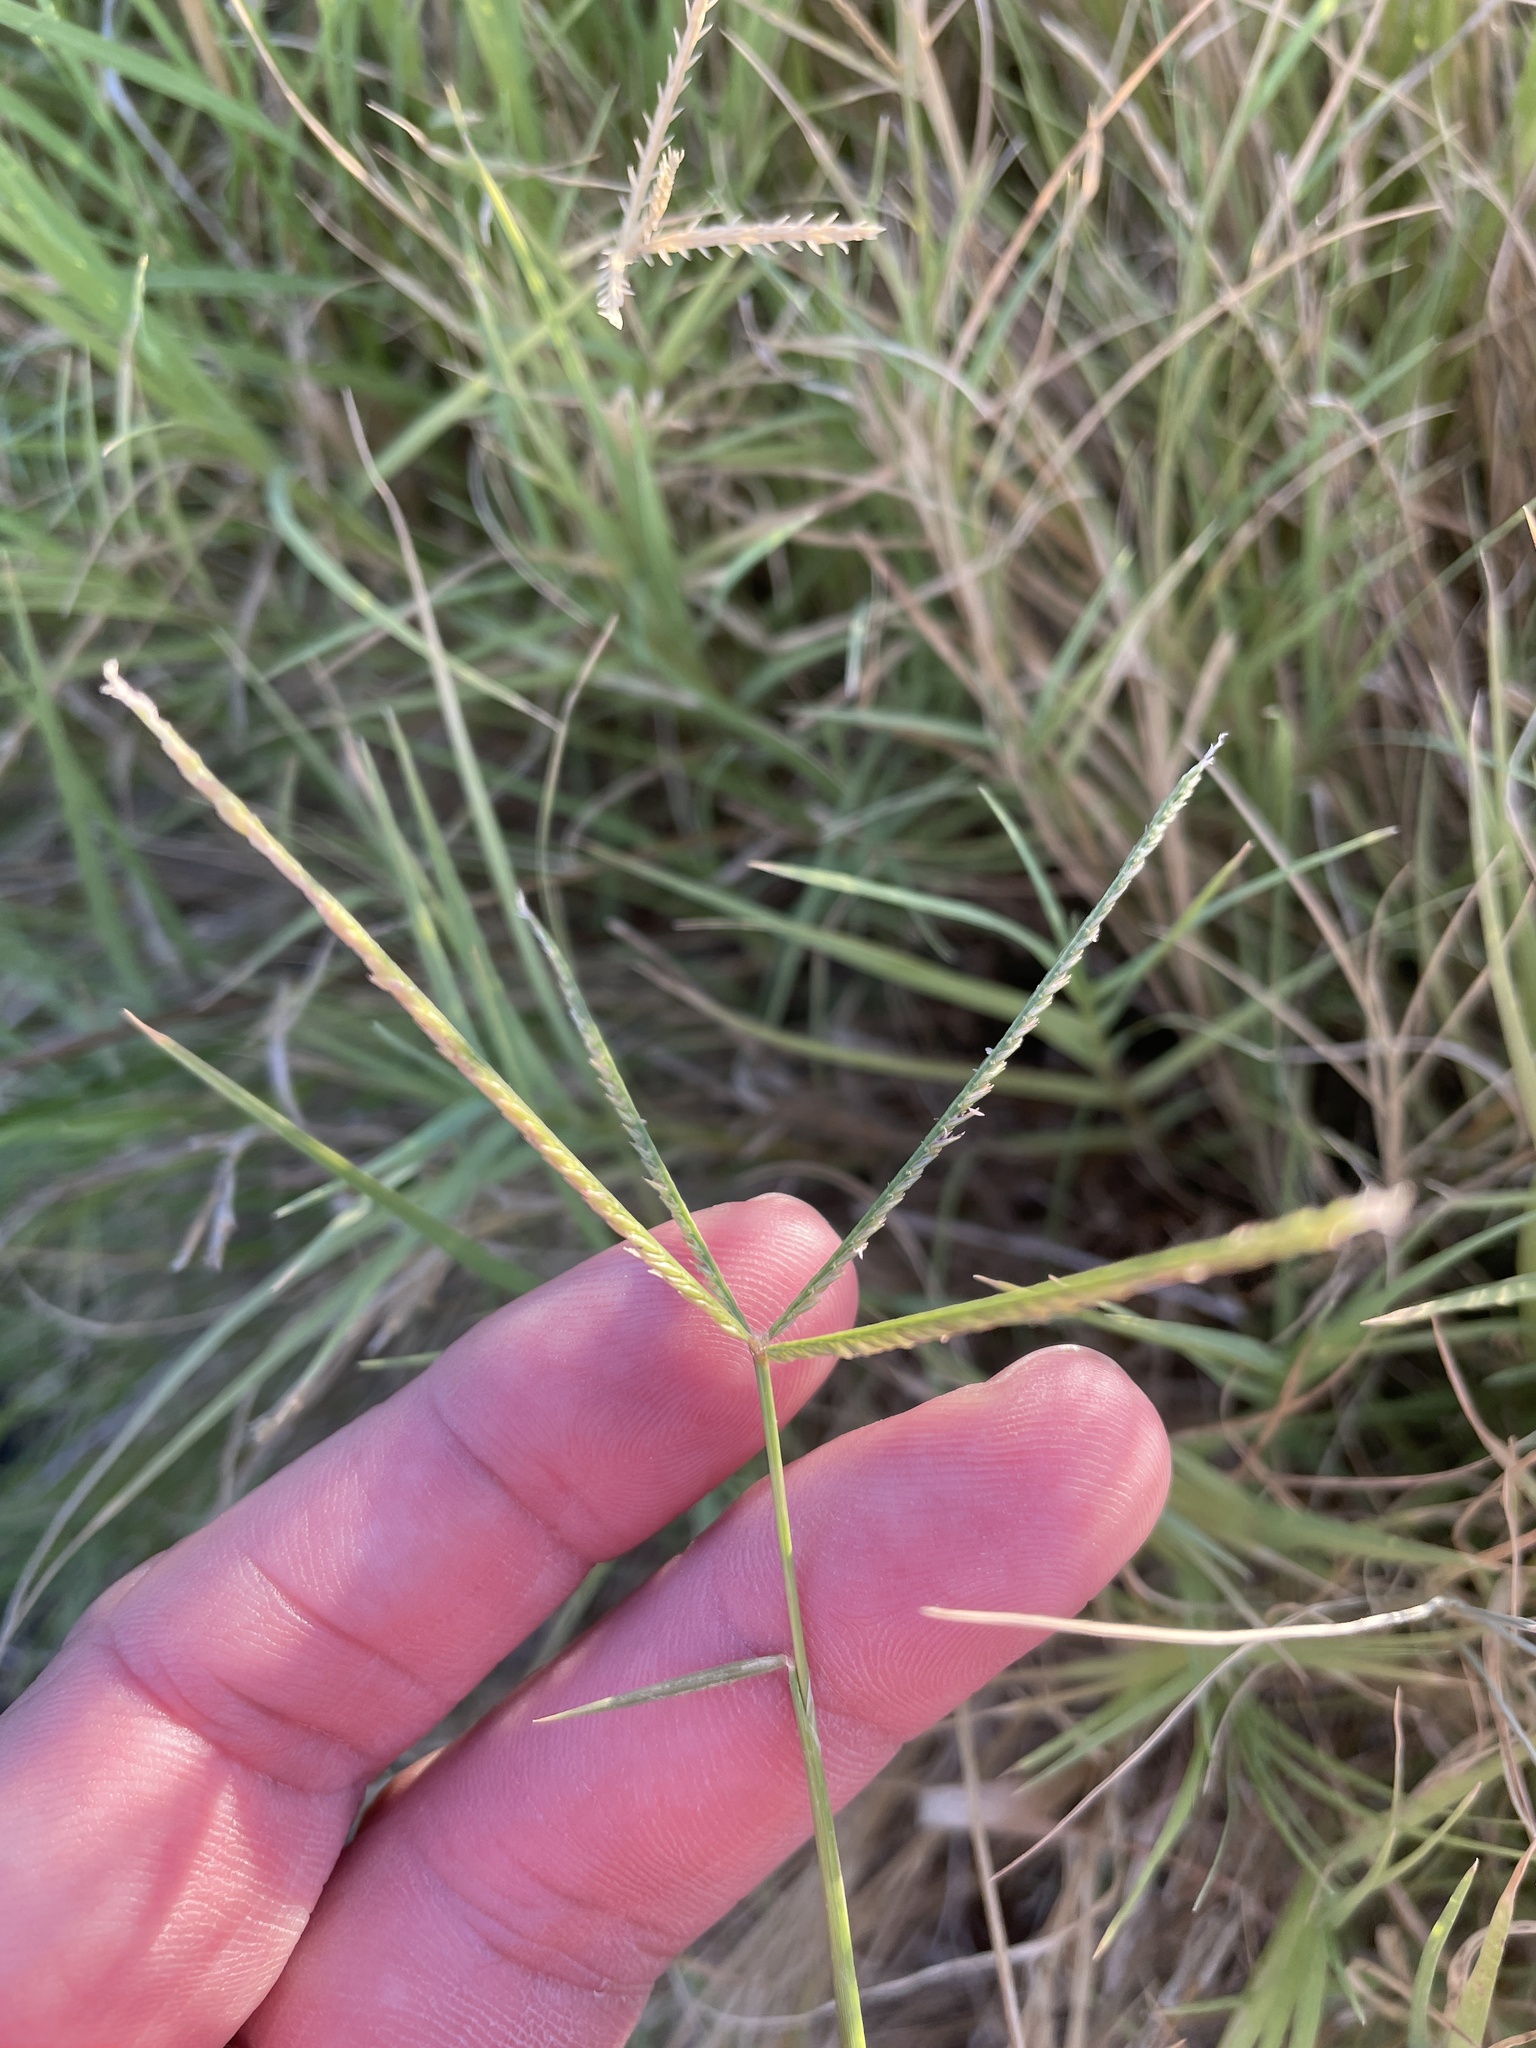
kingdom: Plantae
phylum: Tracheophyta
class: Liliopsida
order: Poales
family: Poaceae
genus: Cynodon
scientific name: Cynodon dactylon
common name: Bermuda grass
